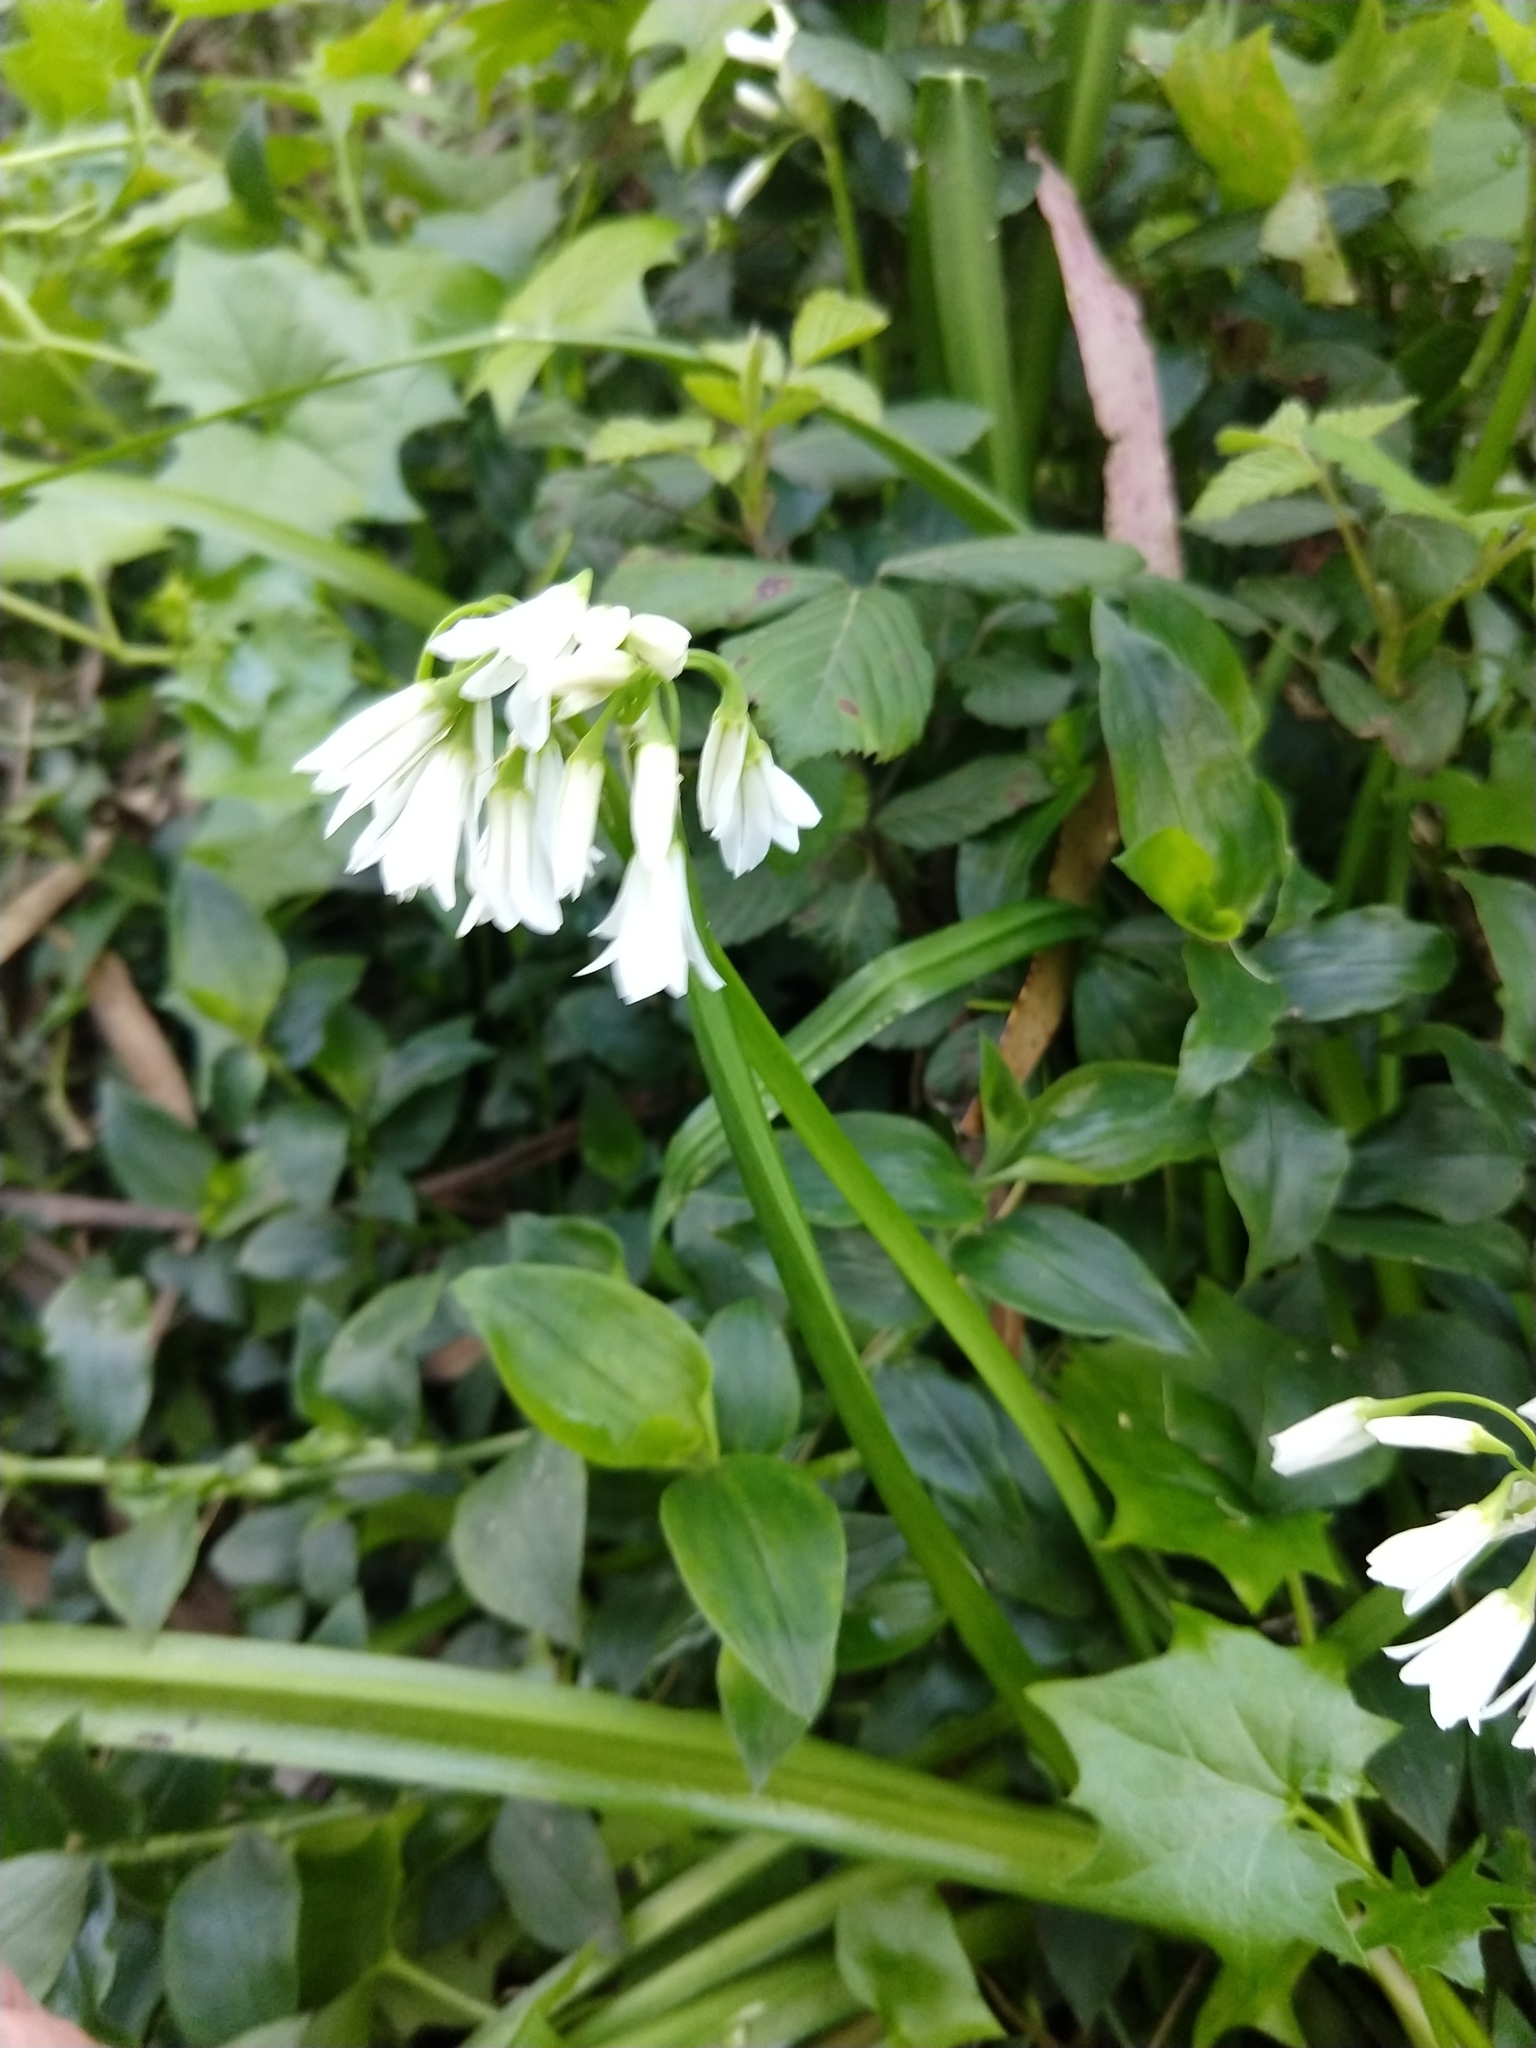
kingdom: Plantae
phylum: Tracheophyta
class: Liliopsida
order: Asparagales
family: Amaryllidaceae
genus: Allium
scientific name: Allium triquetrum
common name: Three-cornered garlic
